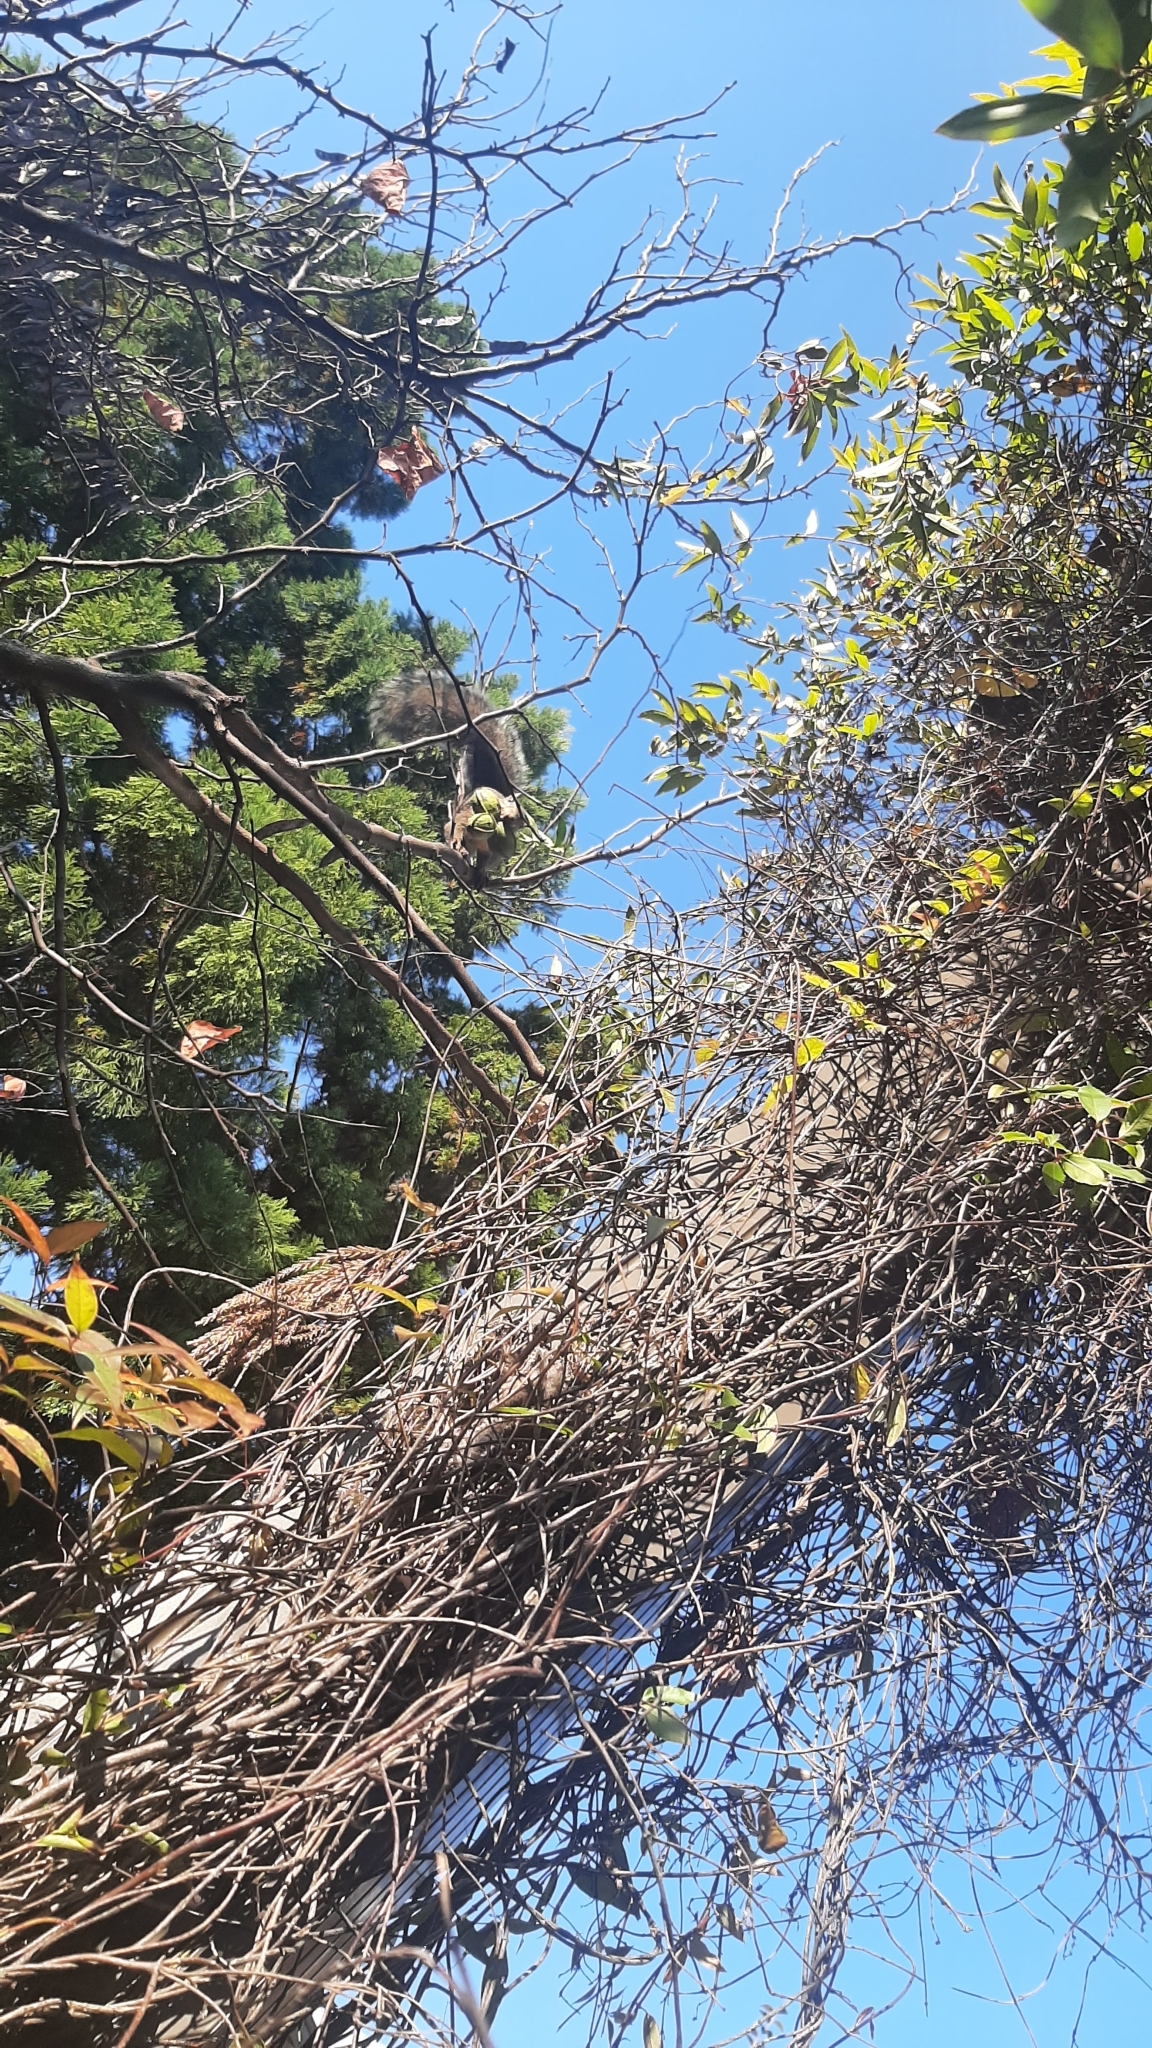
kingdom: Animalia
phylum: Chordata
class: Mammalia
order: Rodentia
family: Sciuridae
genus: Sciurus
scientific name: Sciurus carolinensis
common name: Eastern gray squirrel
